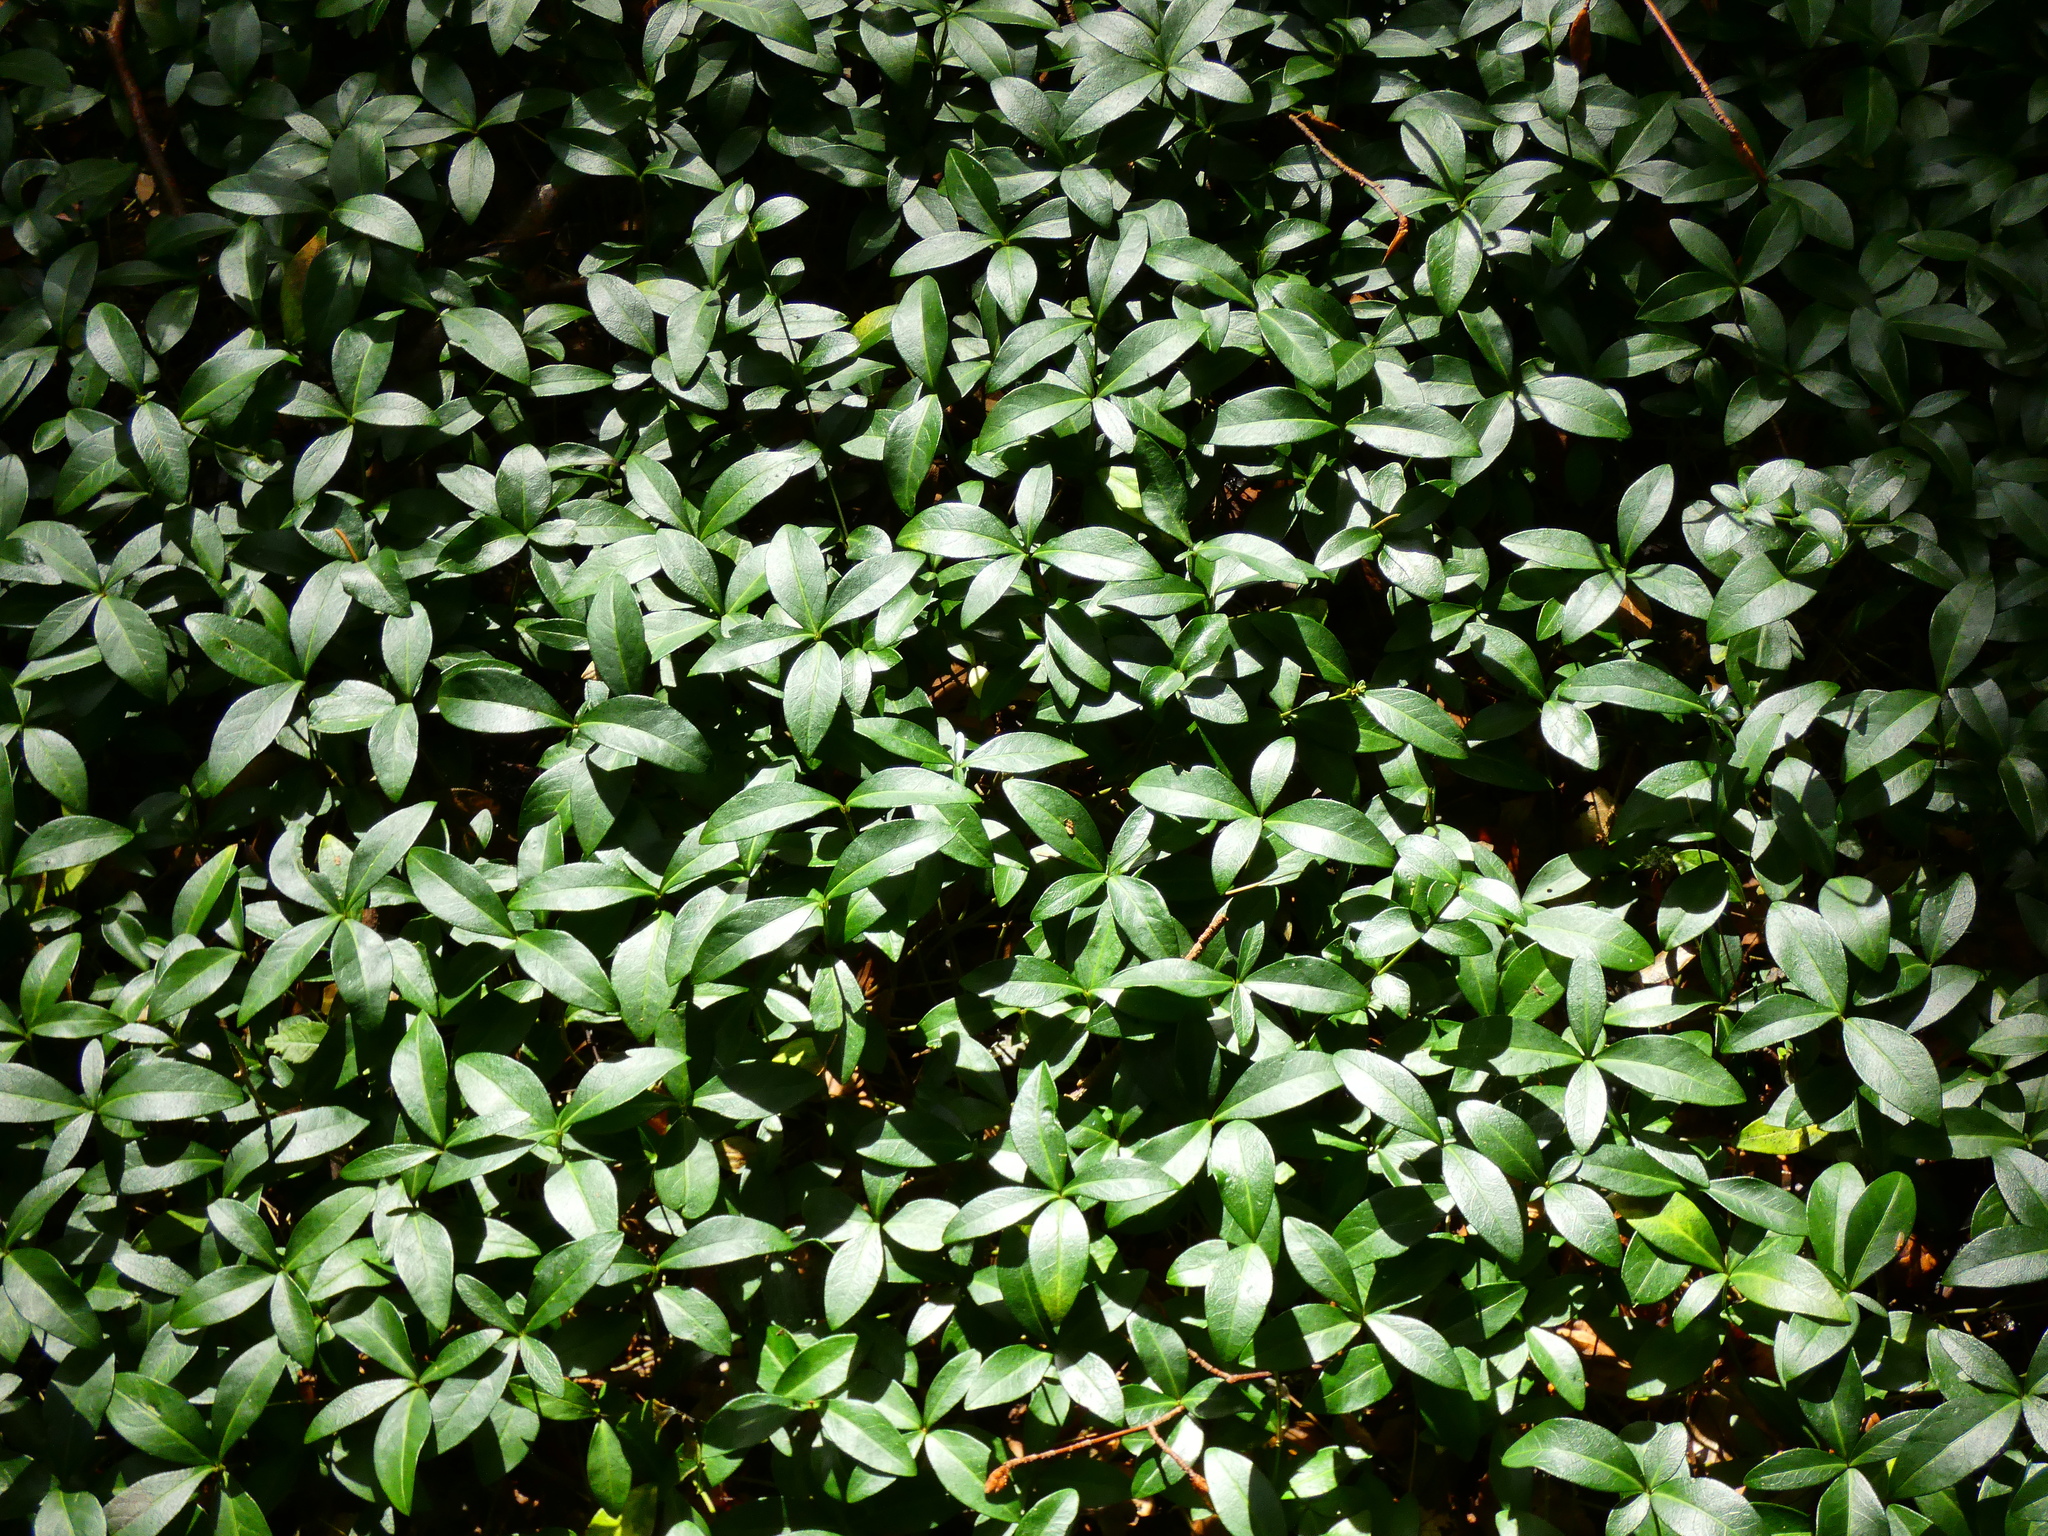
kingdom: Plantae
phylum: Tracheophyta
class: Magnoliopsida
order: Gentianales
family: Apocynaceae
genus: Vinca
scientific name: Vinca minor
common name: Lesser periwinkle
